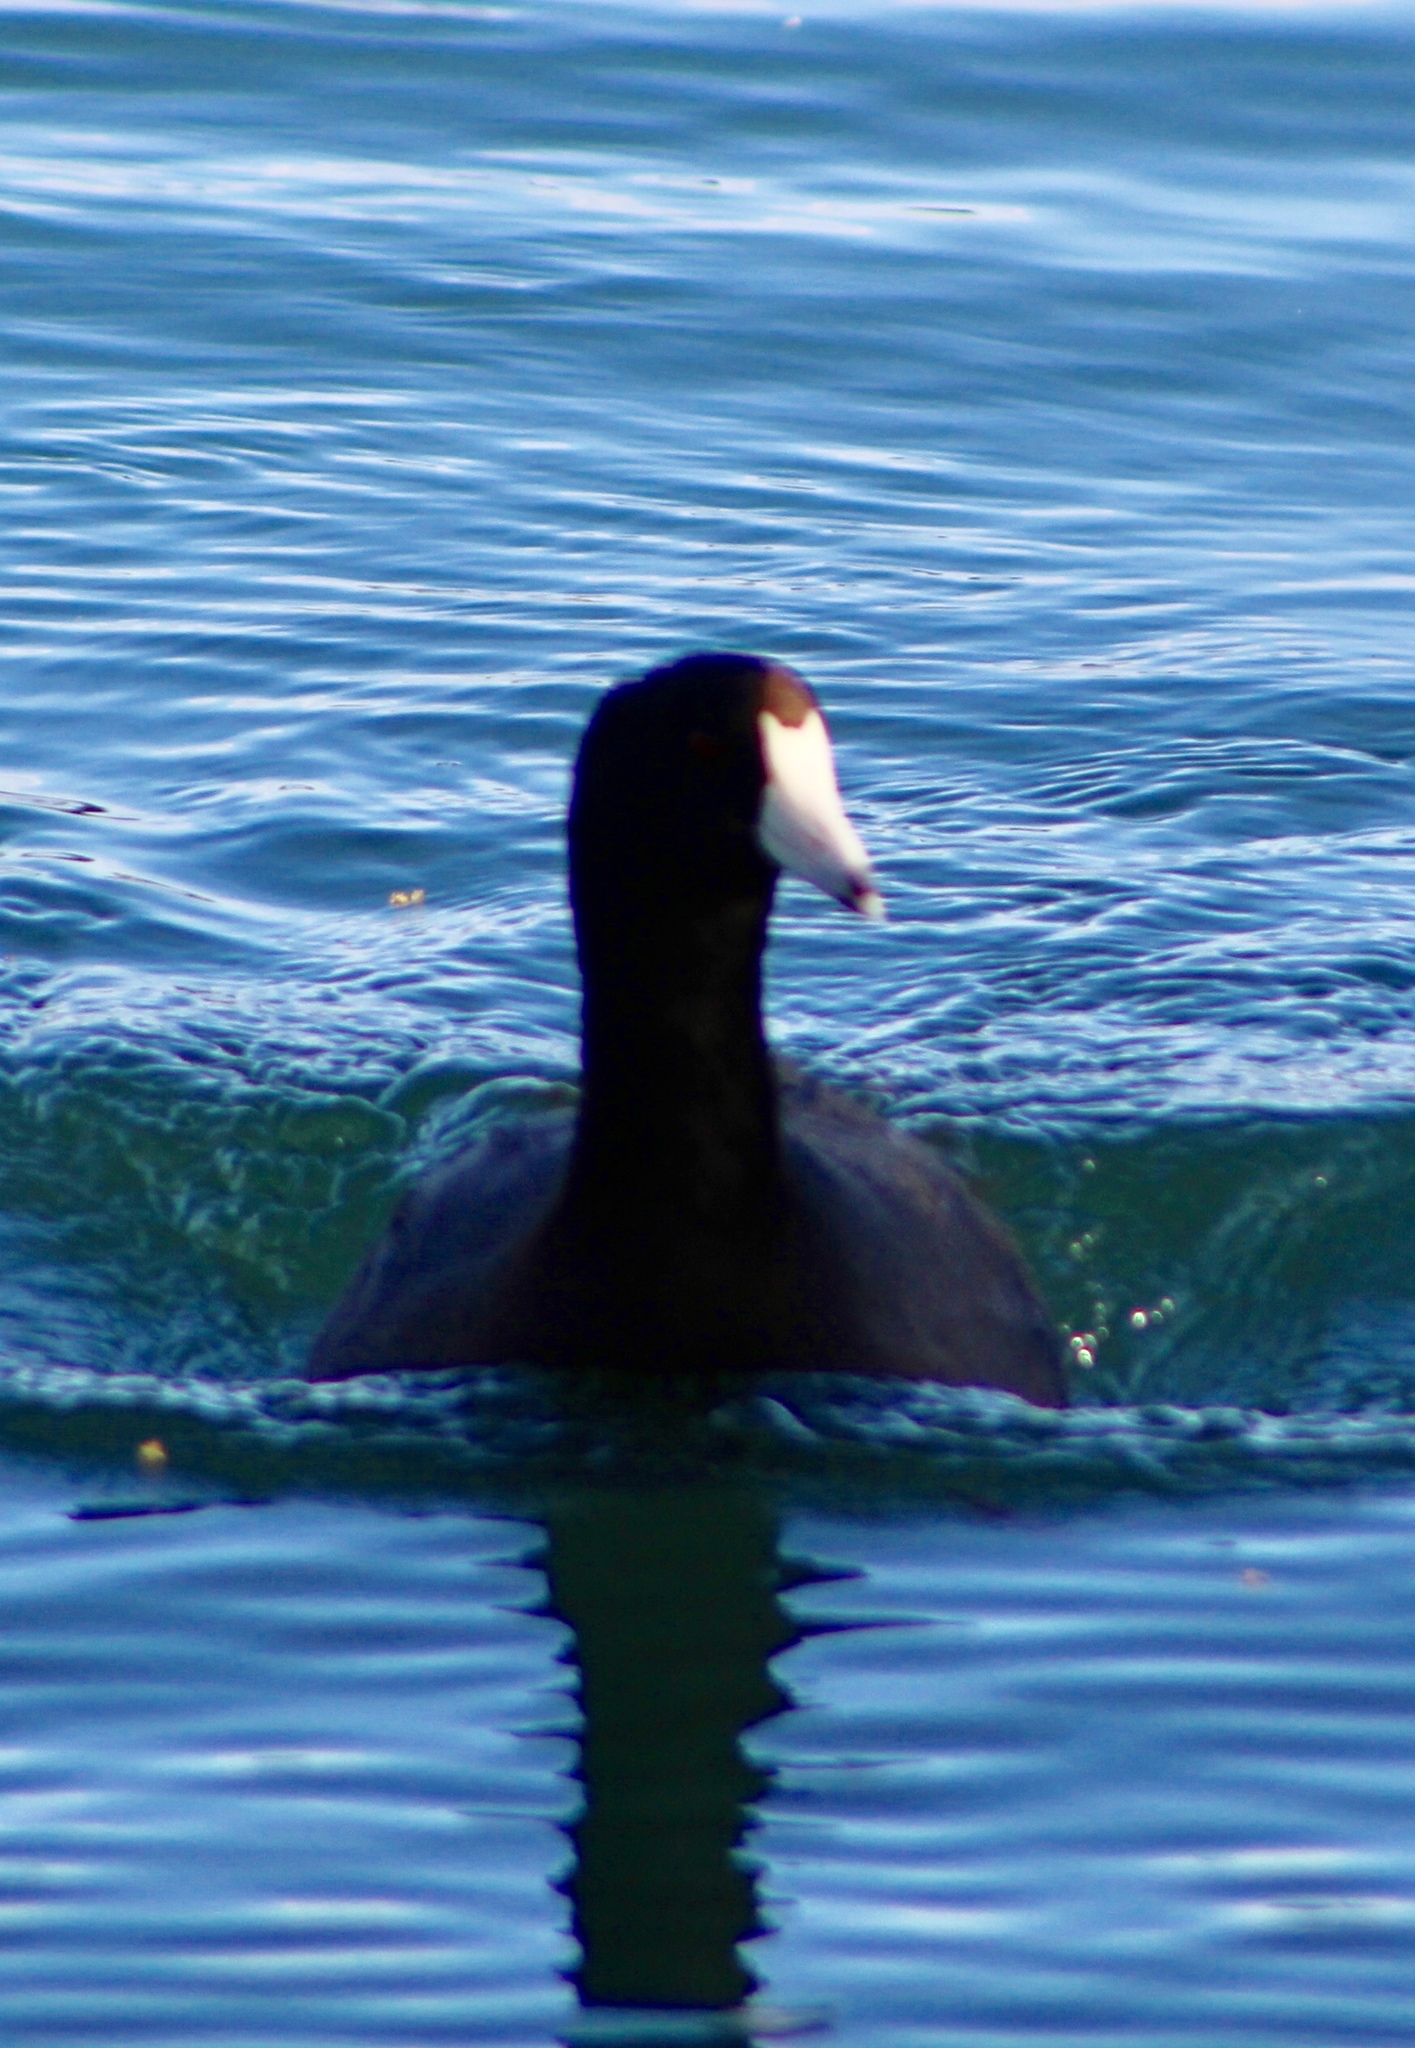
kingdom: Animalia
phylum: Chordata
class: Aves
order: Gruiformes
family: Rallidae
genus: Fulica
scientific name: Fulica americana
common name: American coot
